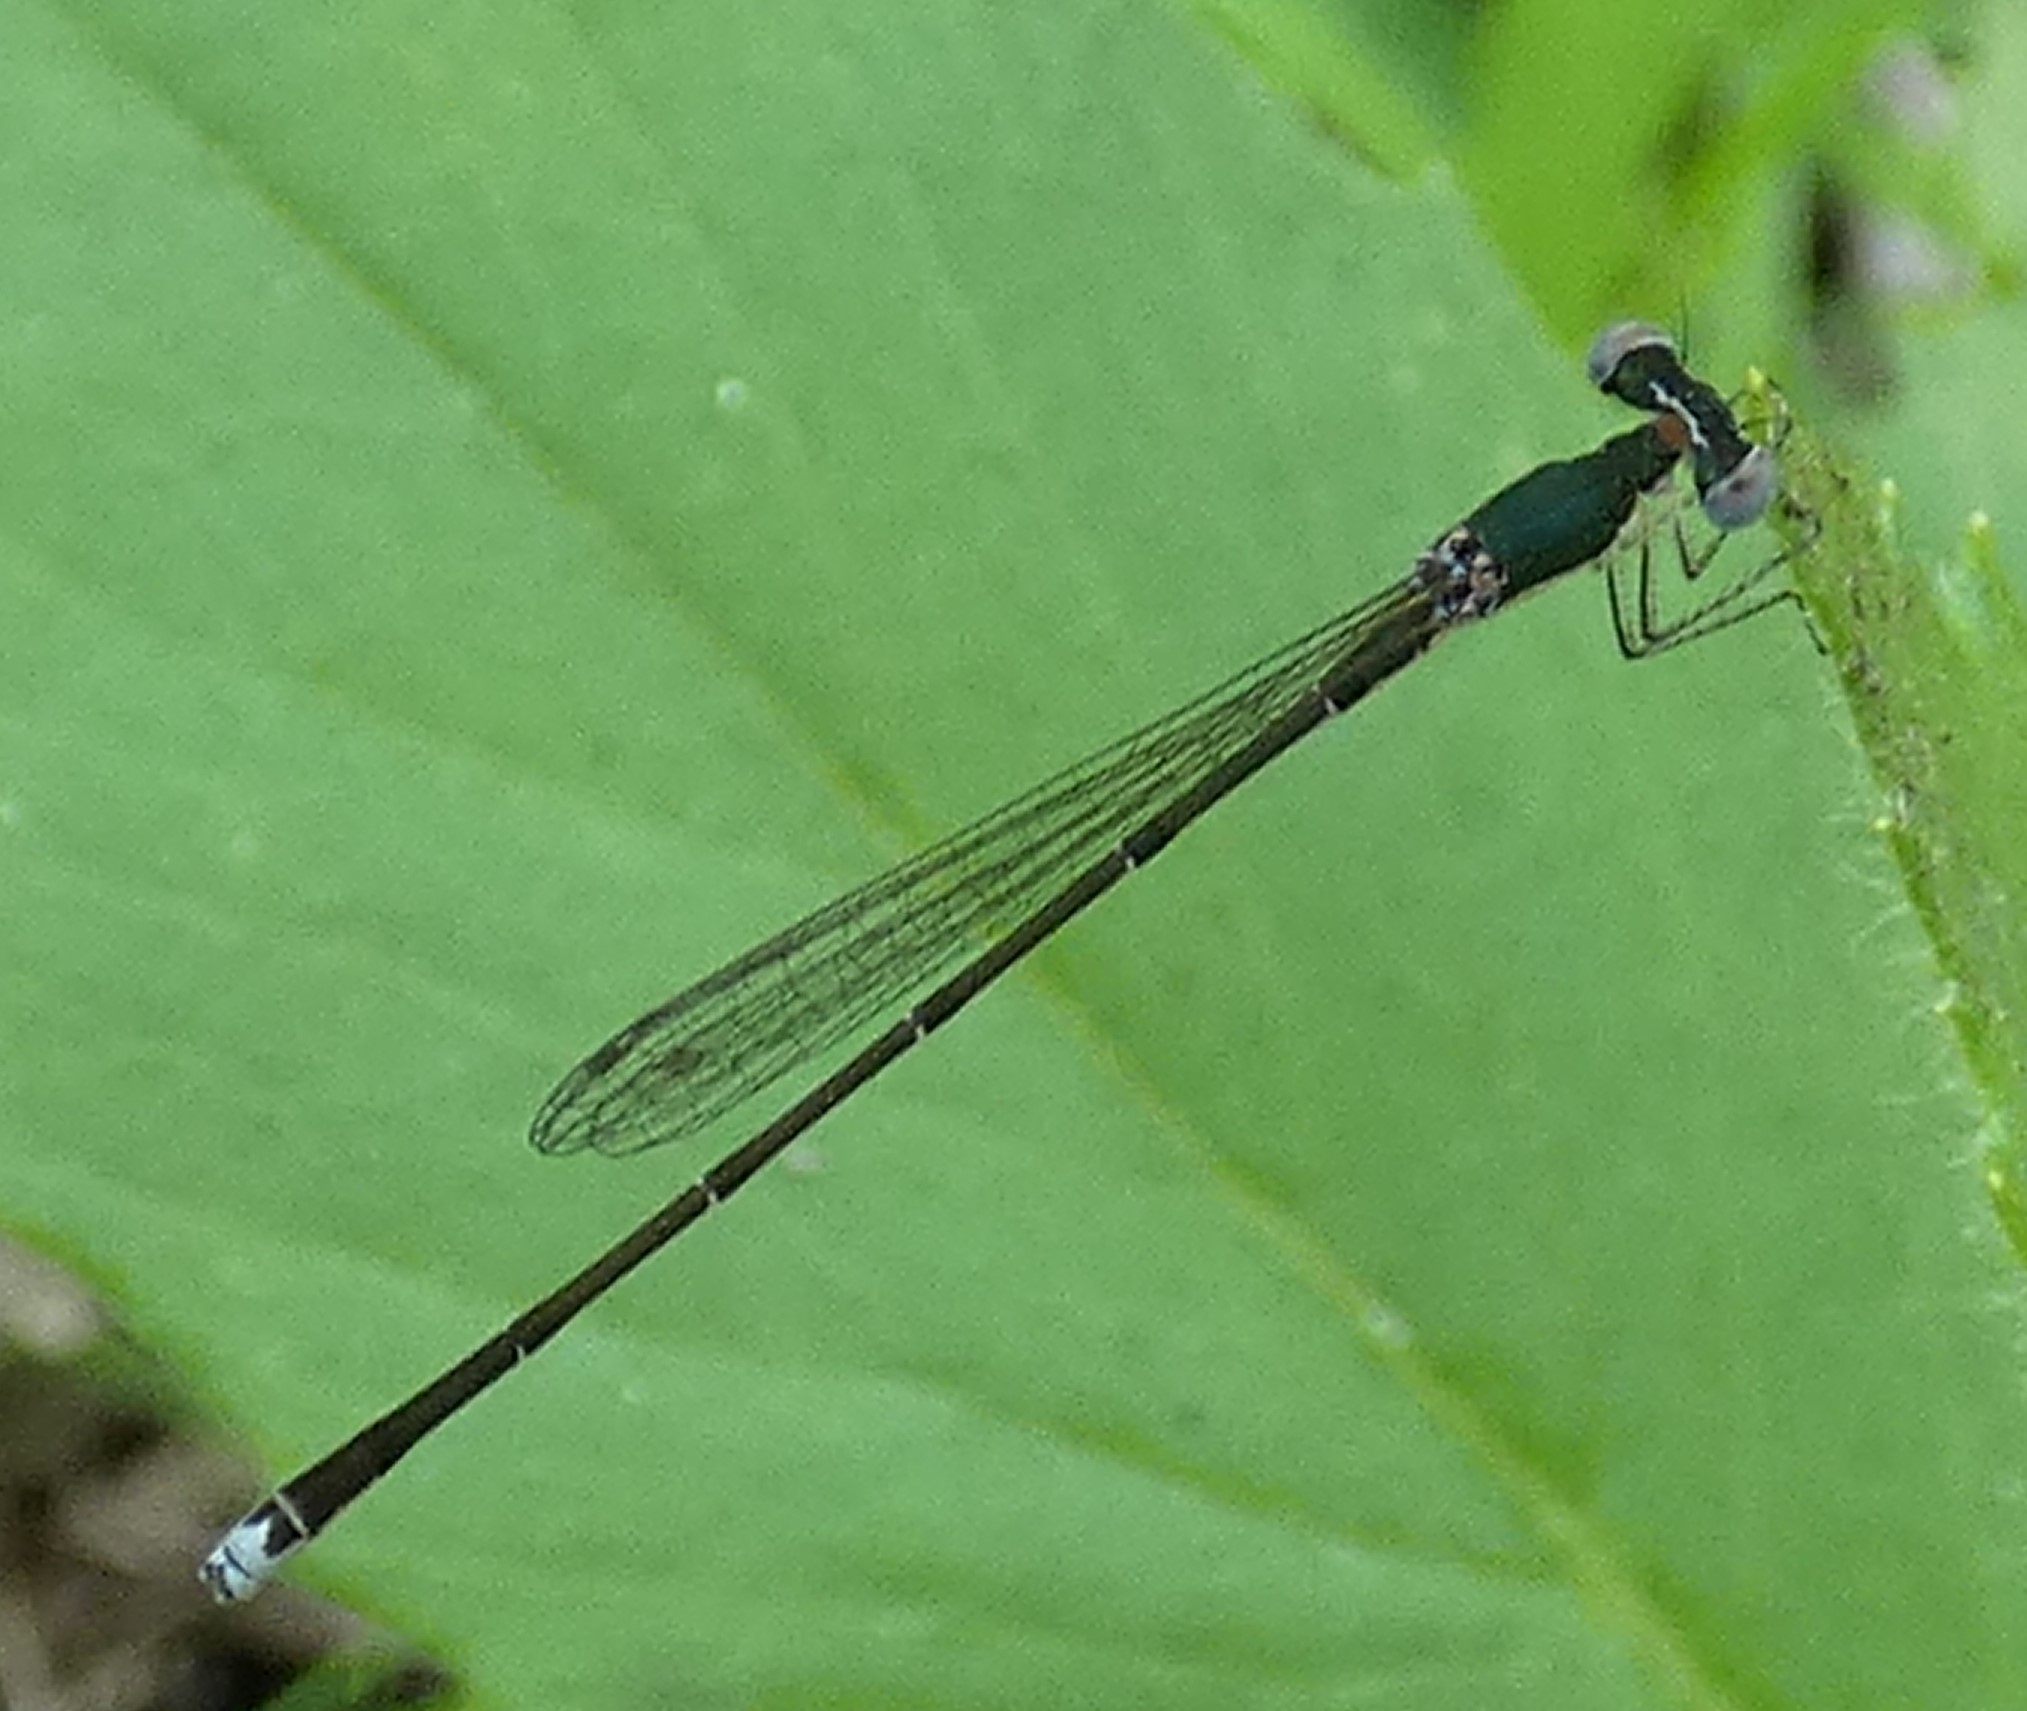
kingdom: Animalia
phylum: Arthropoda
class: Insecta
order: Odonata
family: Coenagrionidae
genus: Nehalennia
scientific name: Nehalennia integricollis
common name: Southern sprite
